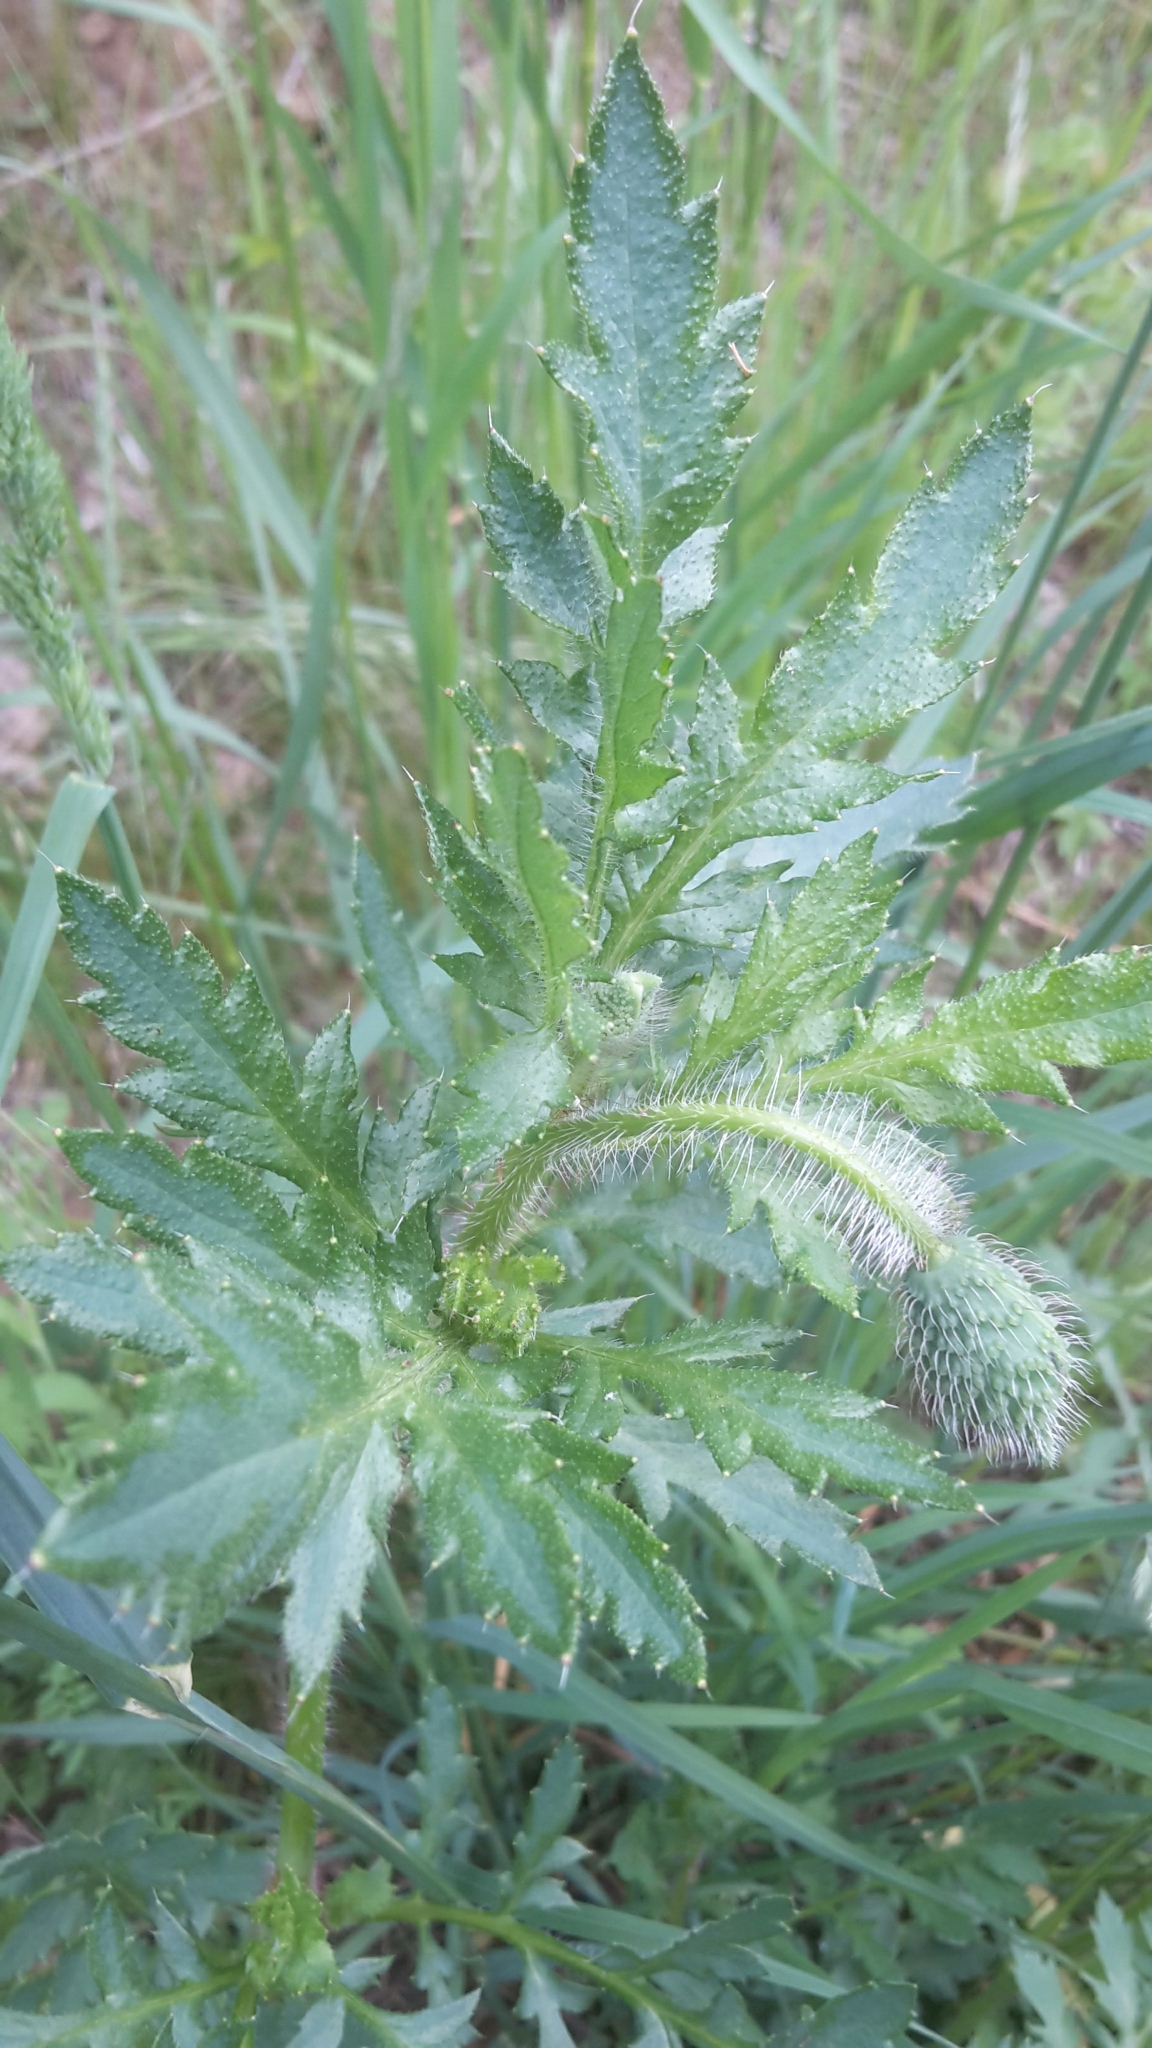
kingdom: Plantae
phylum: Tracheophyta
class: Magnoliopsida
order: Ranunculales
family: Papaveraceae
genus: Papaver
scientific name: Papaver rhoeas
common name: Corn poppy
